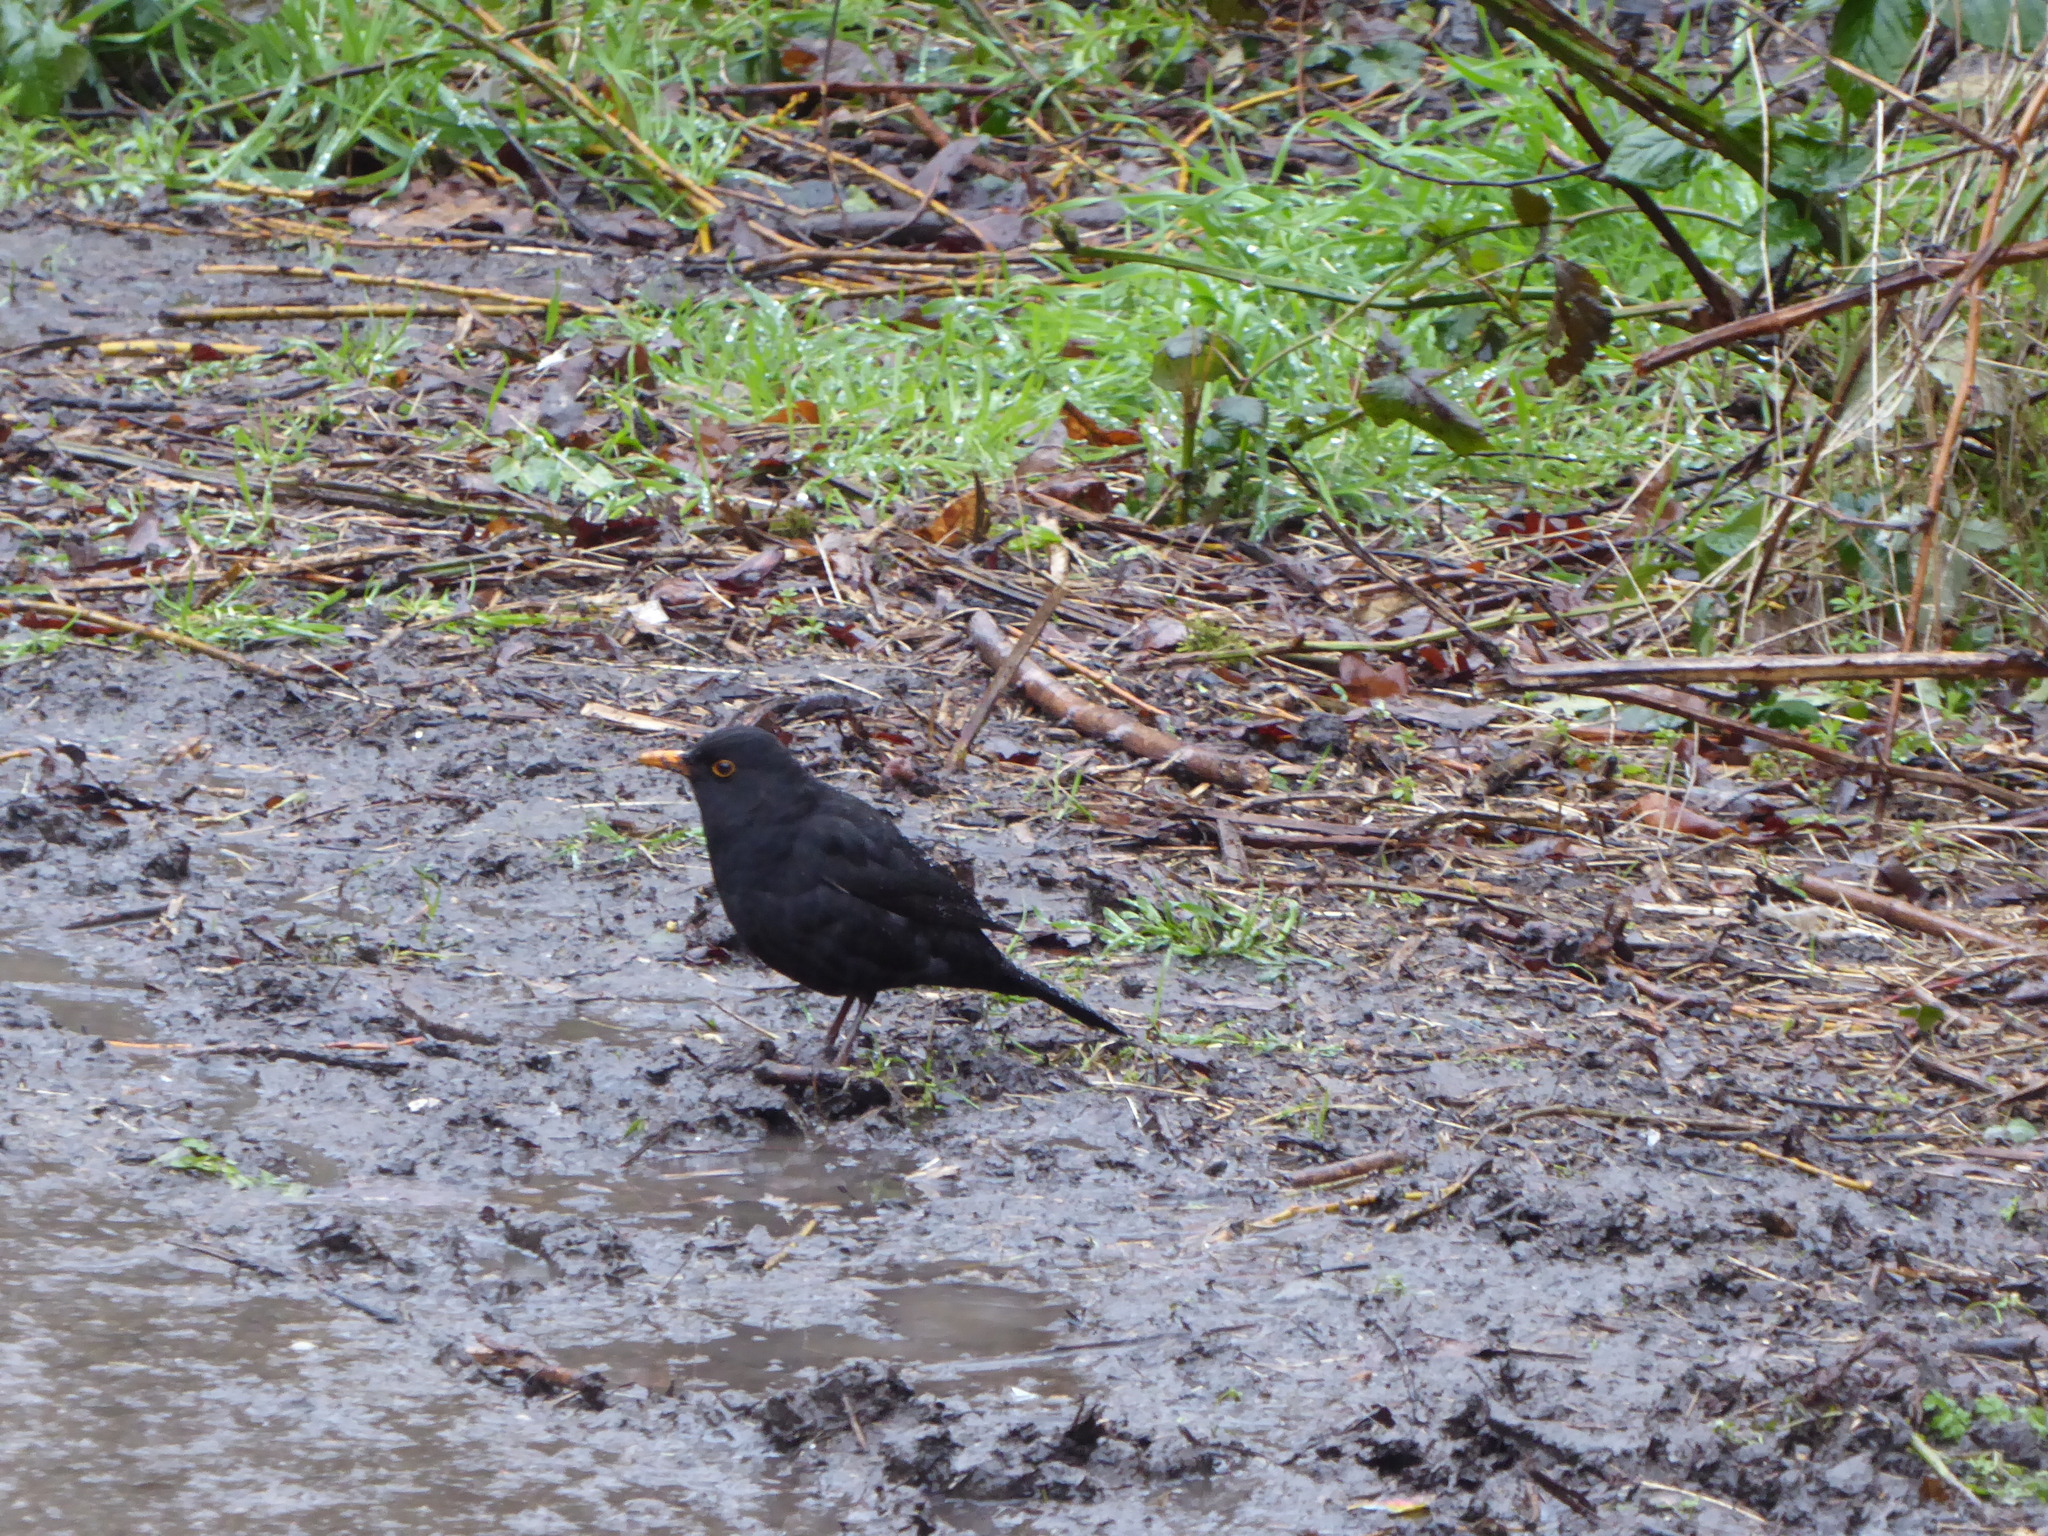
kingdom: Animalia
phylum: Chordata
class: Aves
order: Passeriformes
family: Turdidae
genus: Turdus
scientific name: Turdus merula
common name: Common blackbird
